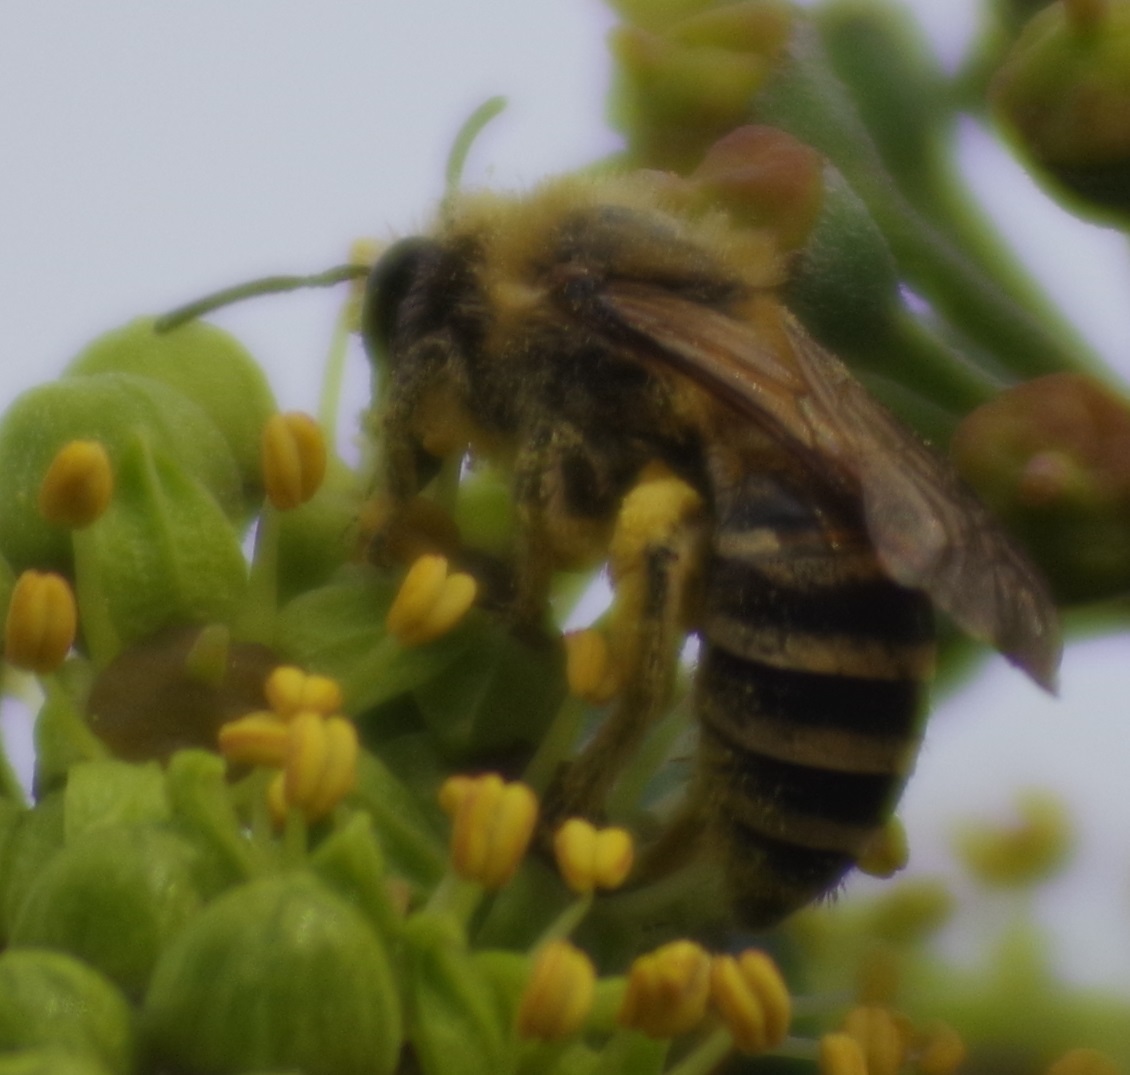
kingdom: Animalia
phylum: Arthropoda
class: Insecta
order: Hymenoptera
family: Colletidae
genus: Colletes
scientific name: Colletes hederae
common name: Ivy bee
